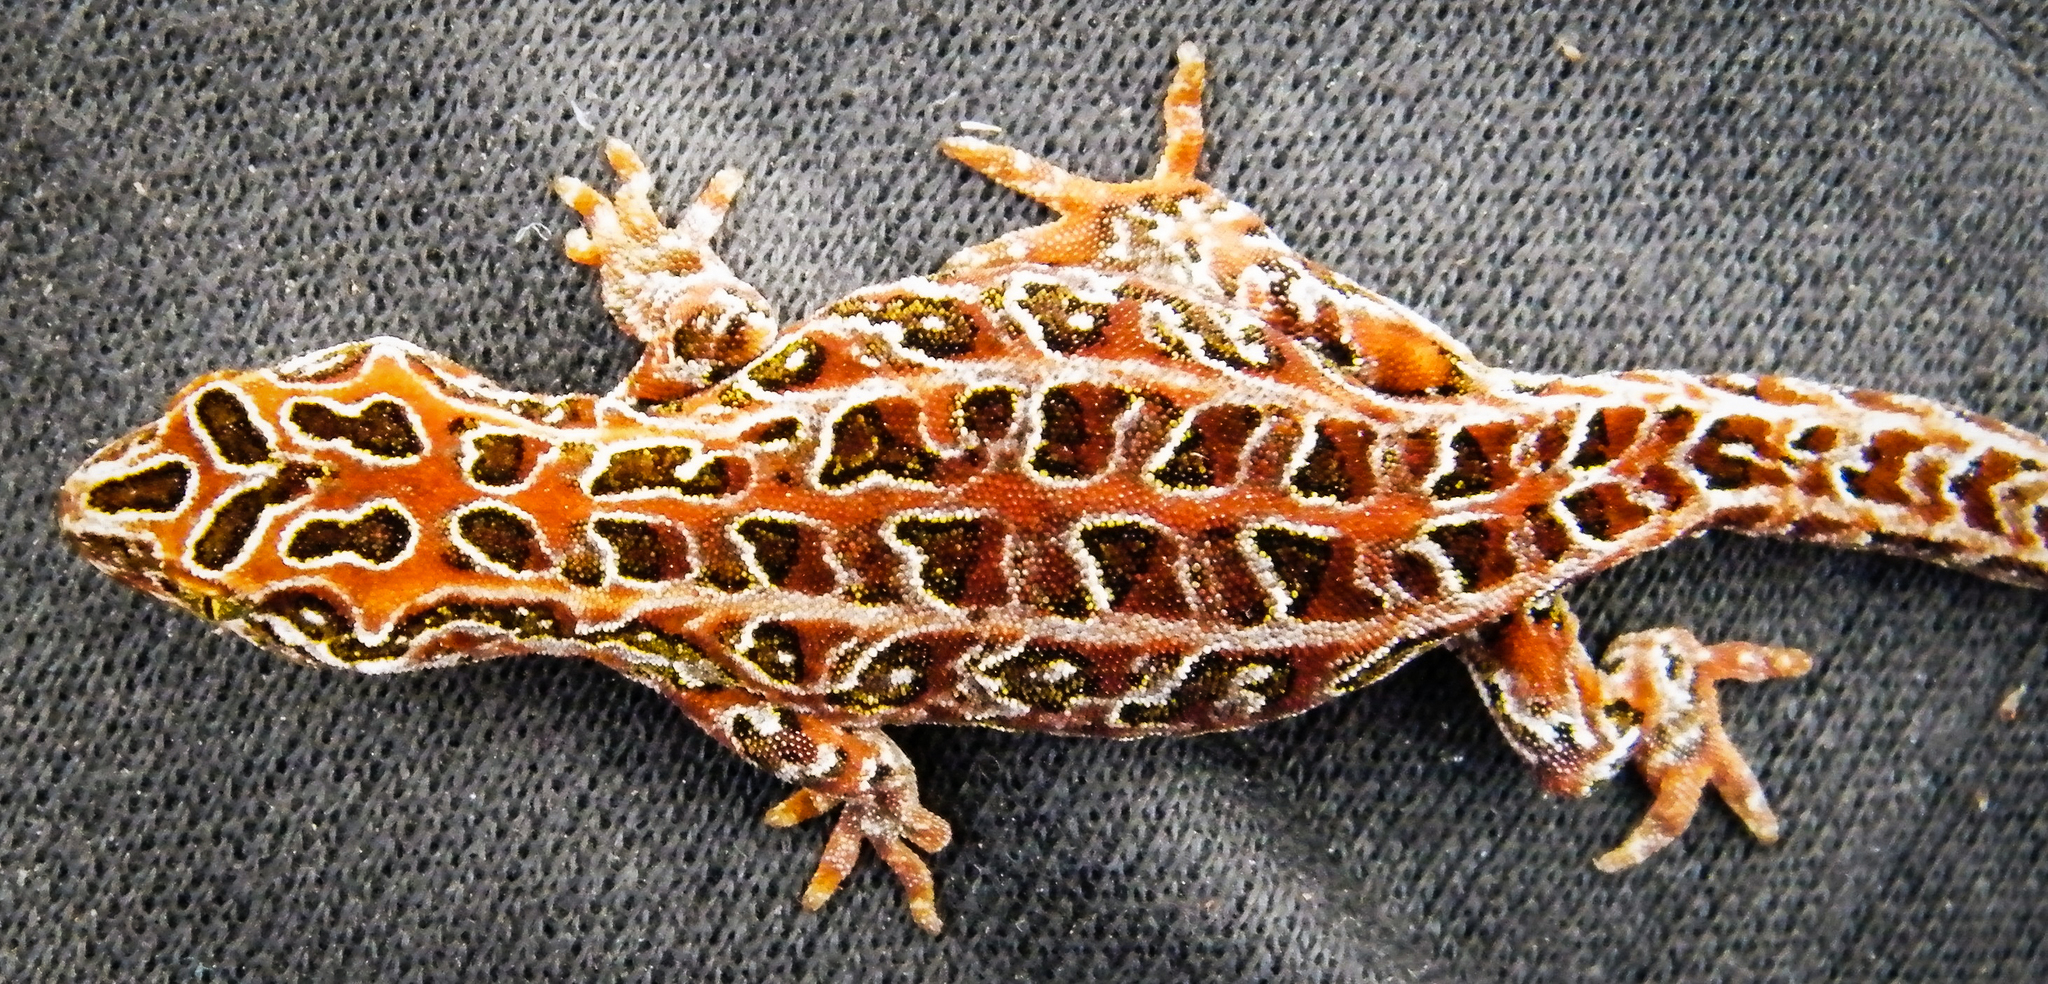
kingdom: Animalia
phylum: Chordata
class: Squamata
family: Diplodactylidae
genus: Tukutuku
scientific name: Tukutuku rakiurae
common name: Harlequin gecko
